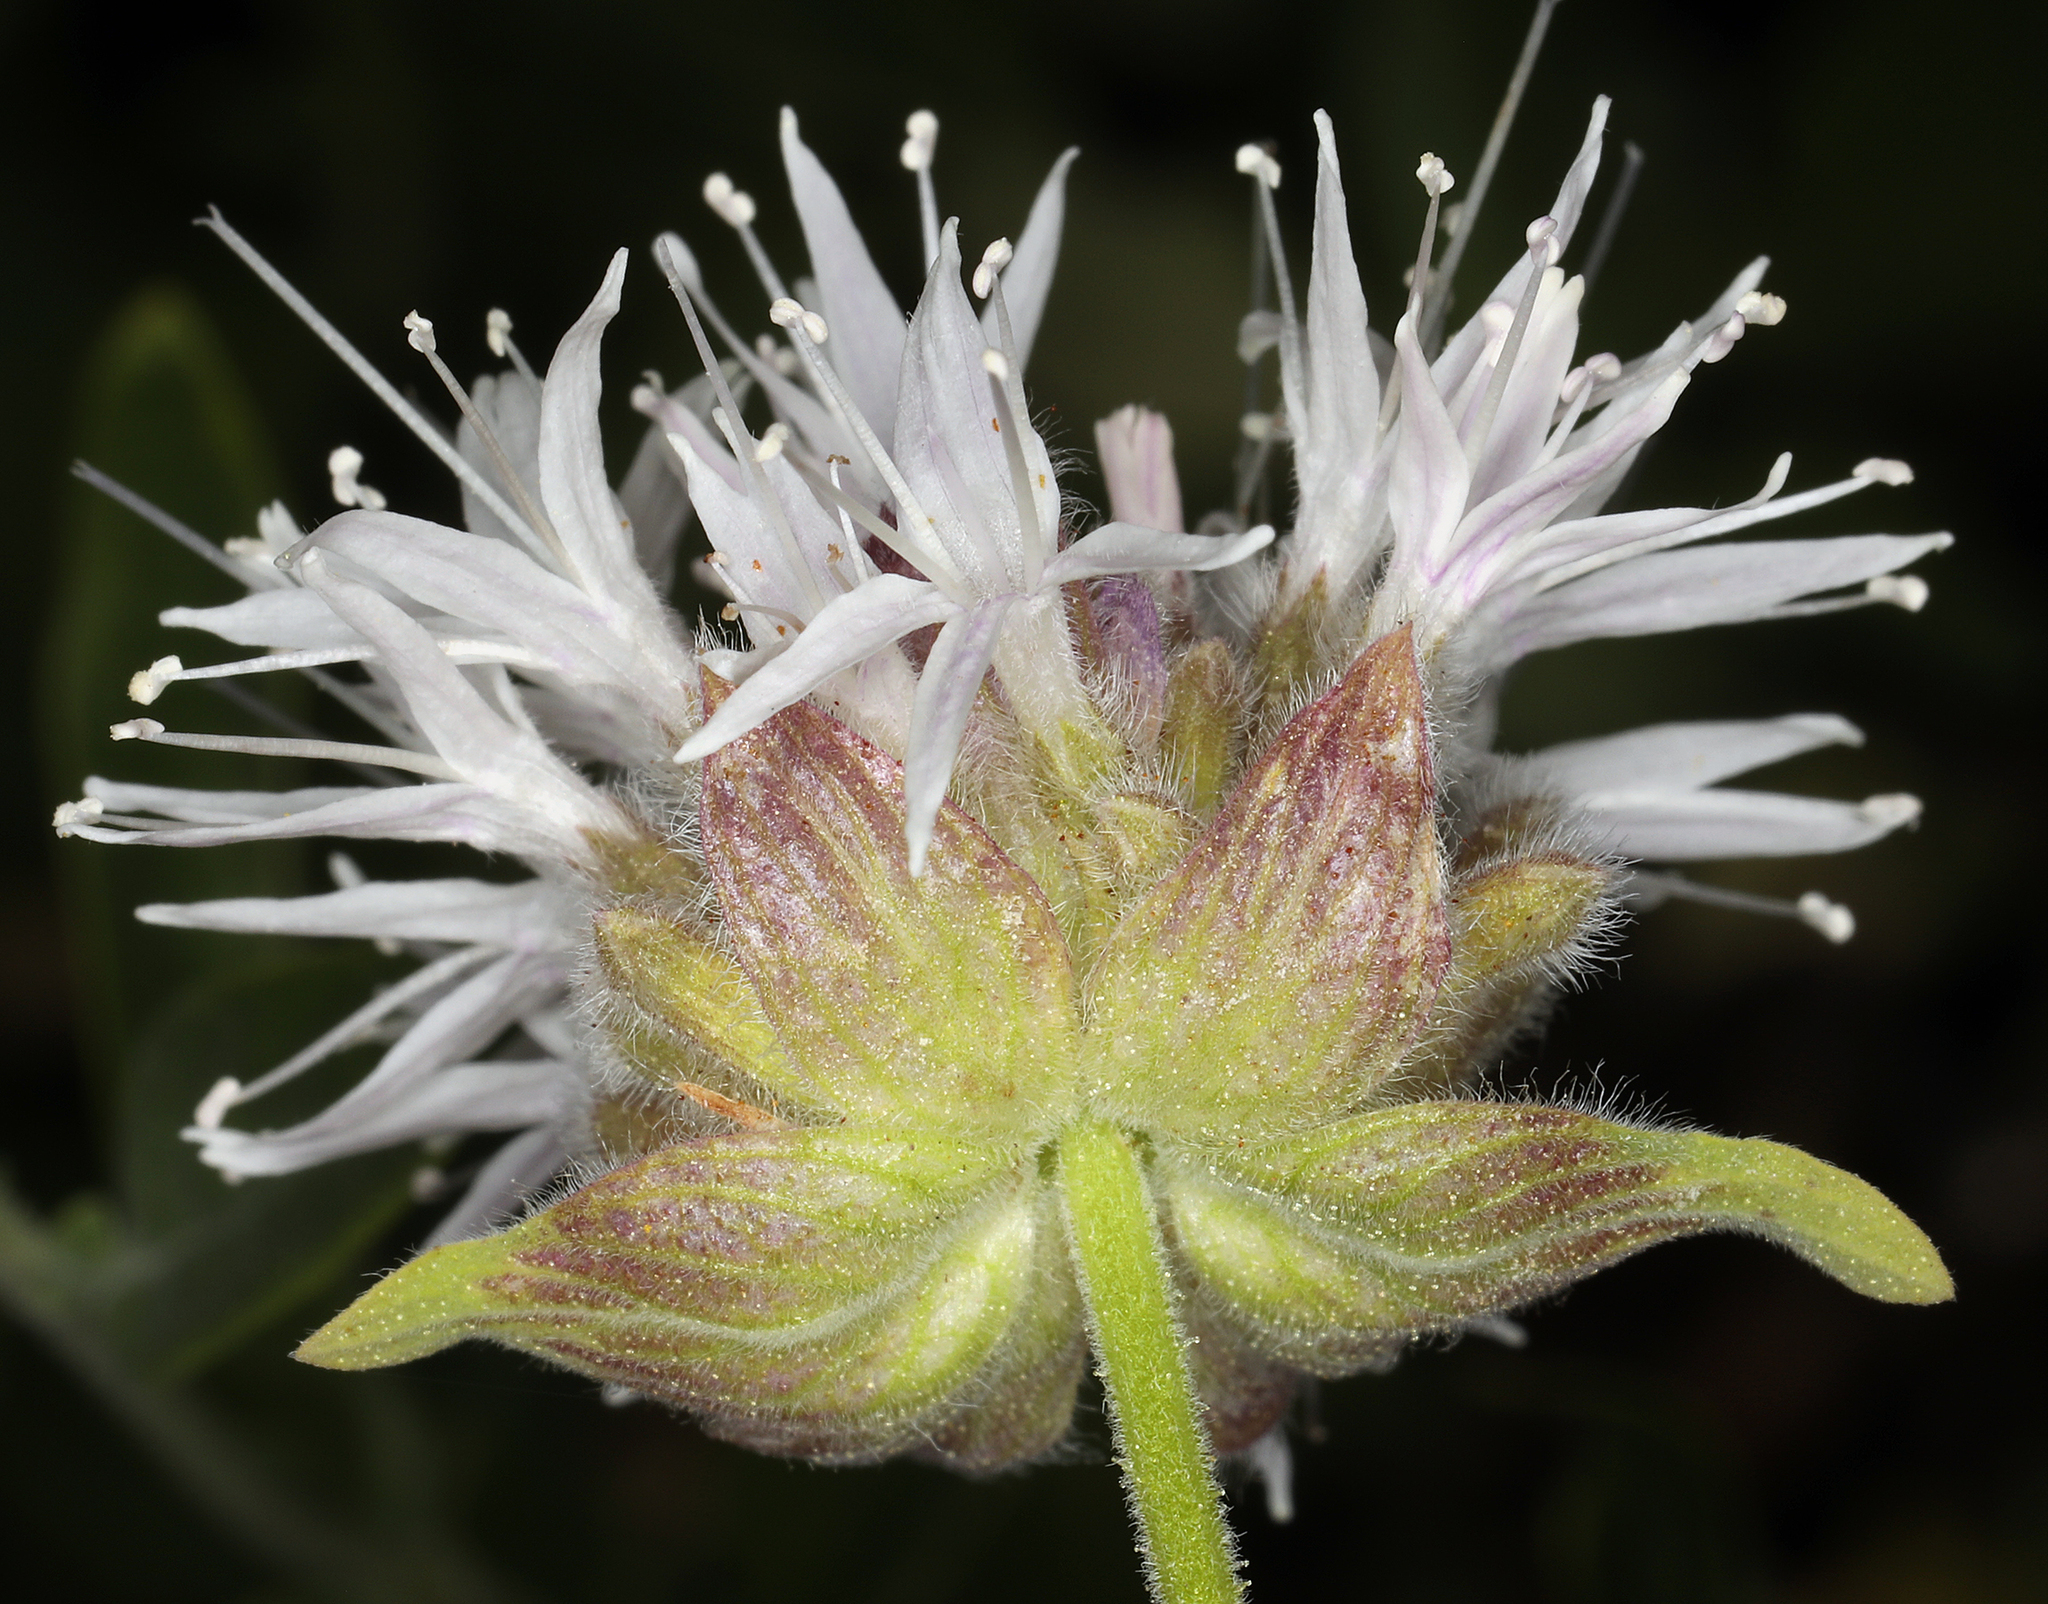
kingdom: Plantae
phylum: Tracheophyta
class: Magnoliopsida
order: Lamiales
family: Lamiaceae
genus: Monardella
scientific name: Monardella odoratissima
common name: Pacific monardella
